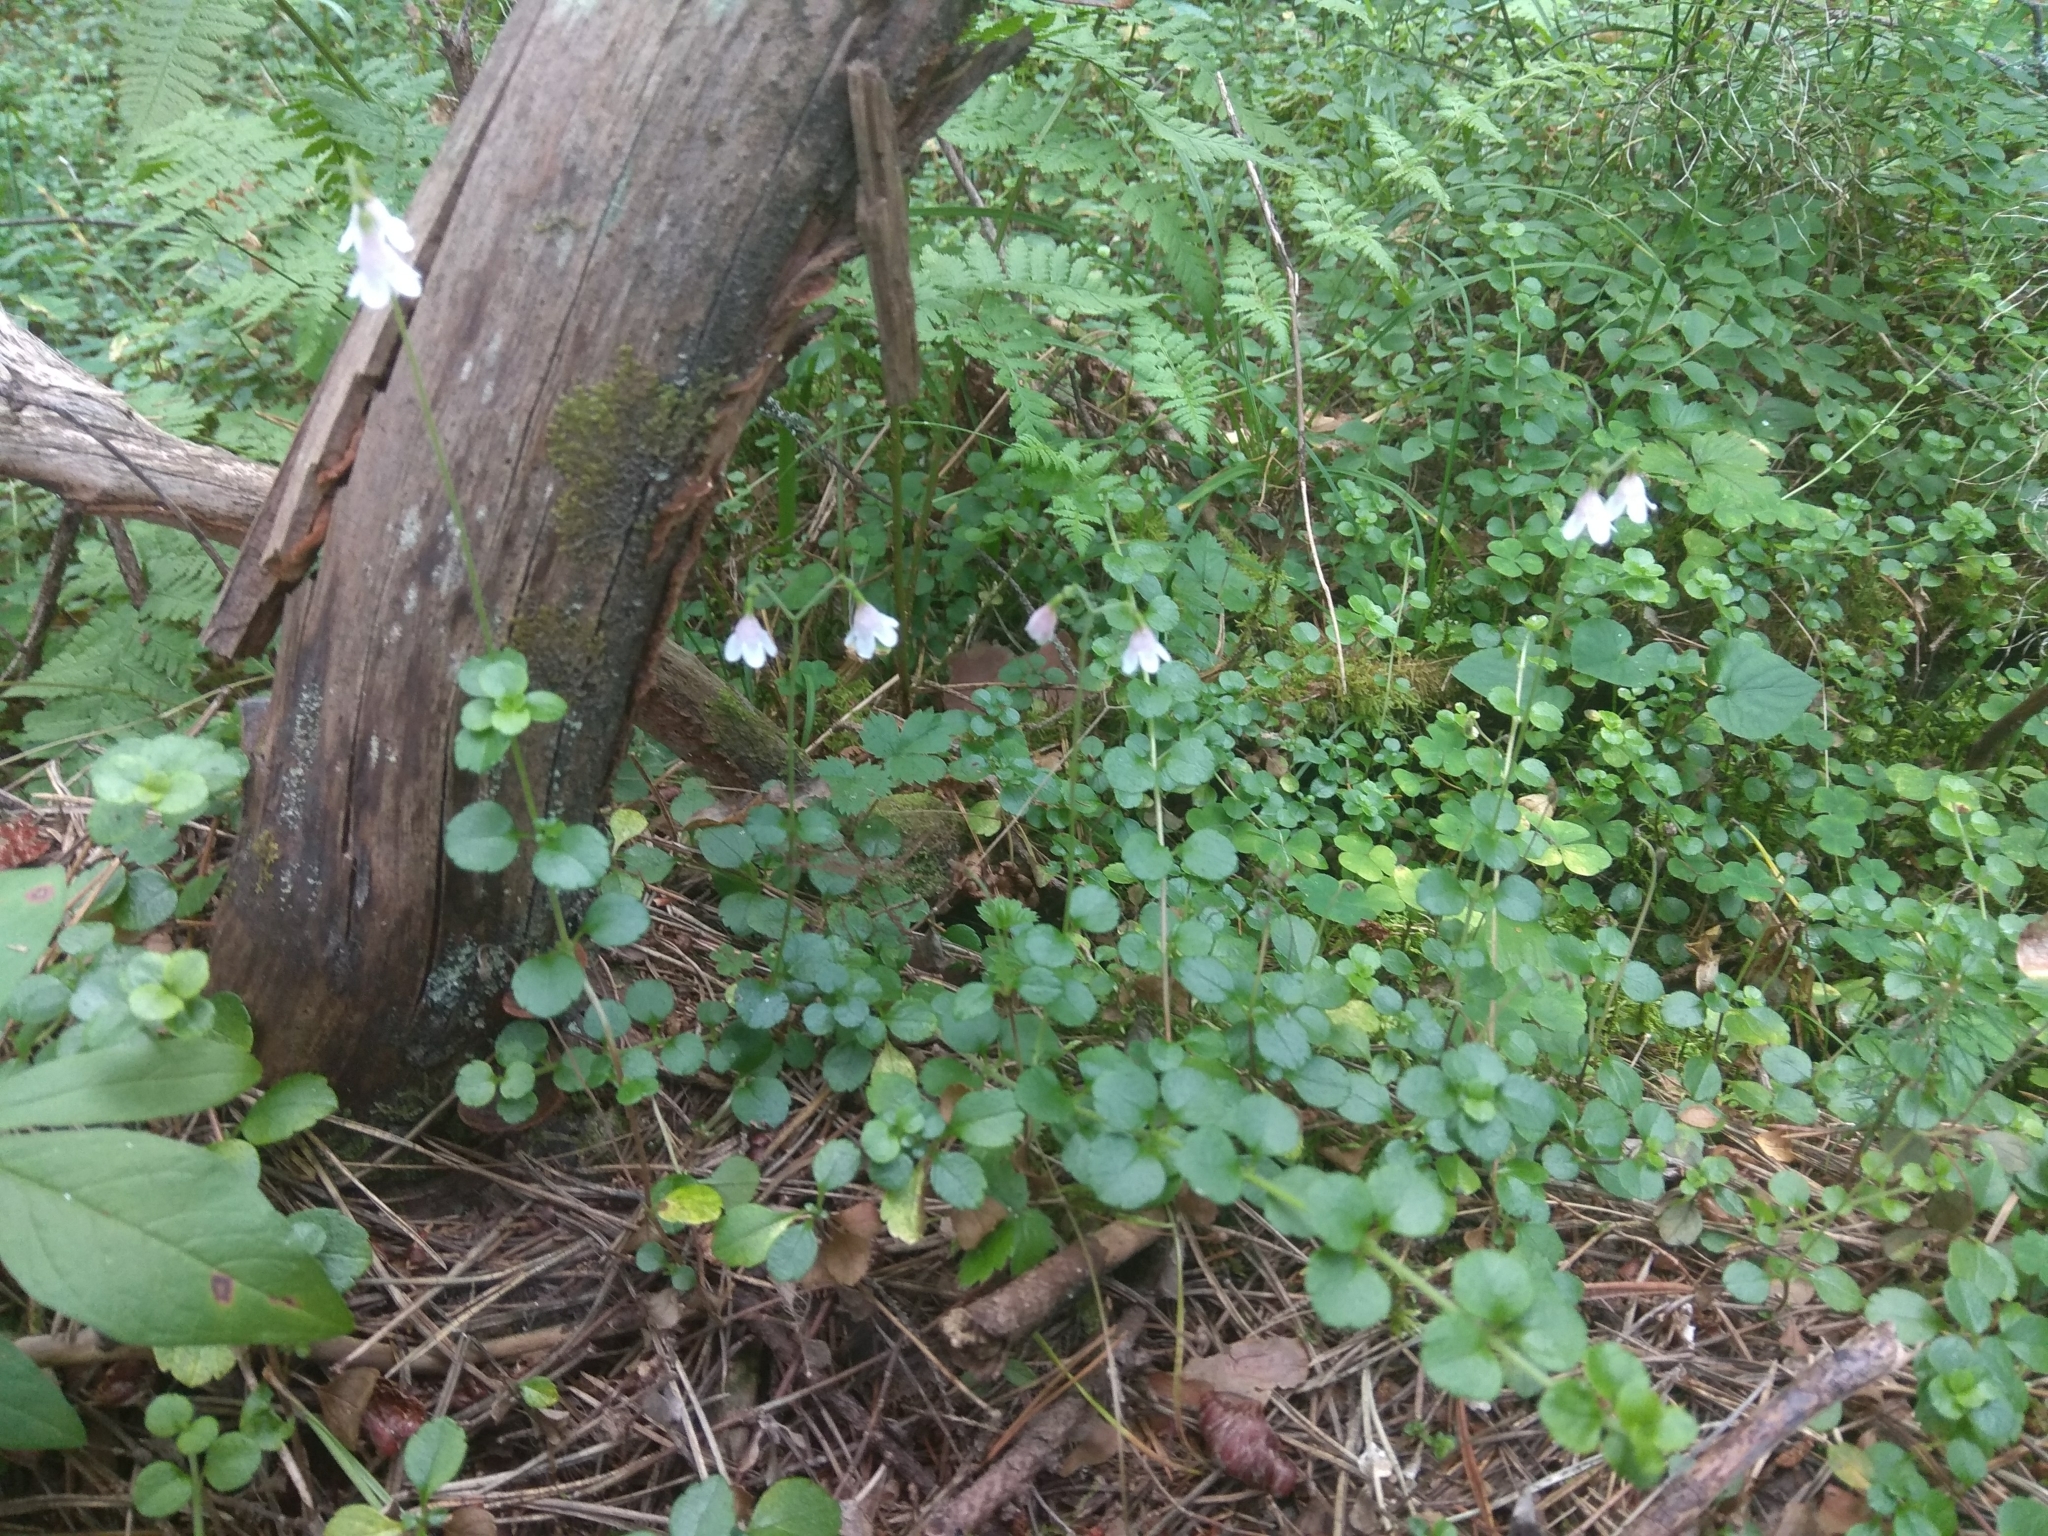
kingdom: Plantae
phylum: Tracheophyta
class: Magnoliopsida
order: Dipsacales
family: Caprifoliaceae
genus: Linnaea
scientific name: Linnaea borealis
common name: Twinflower
